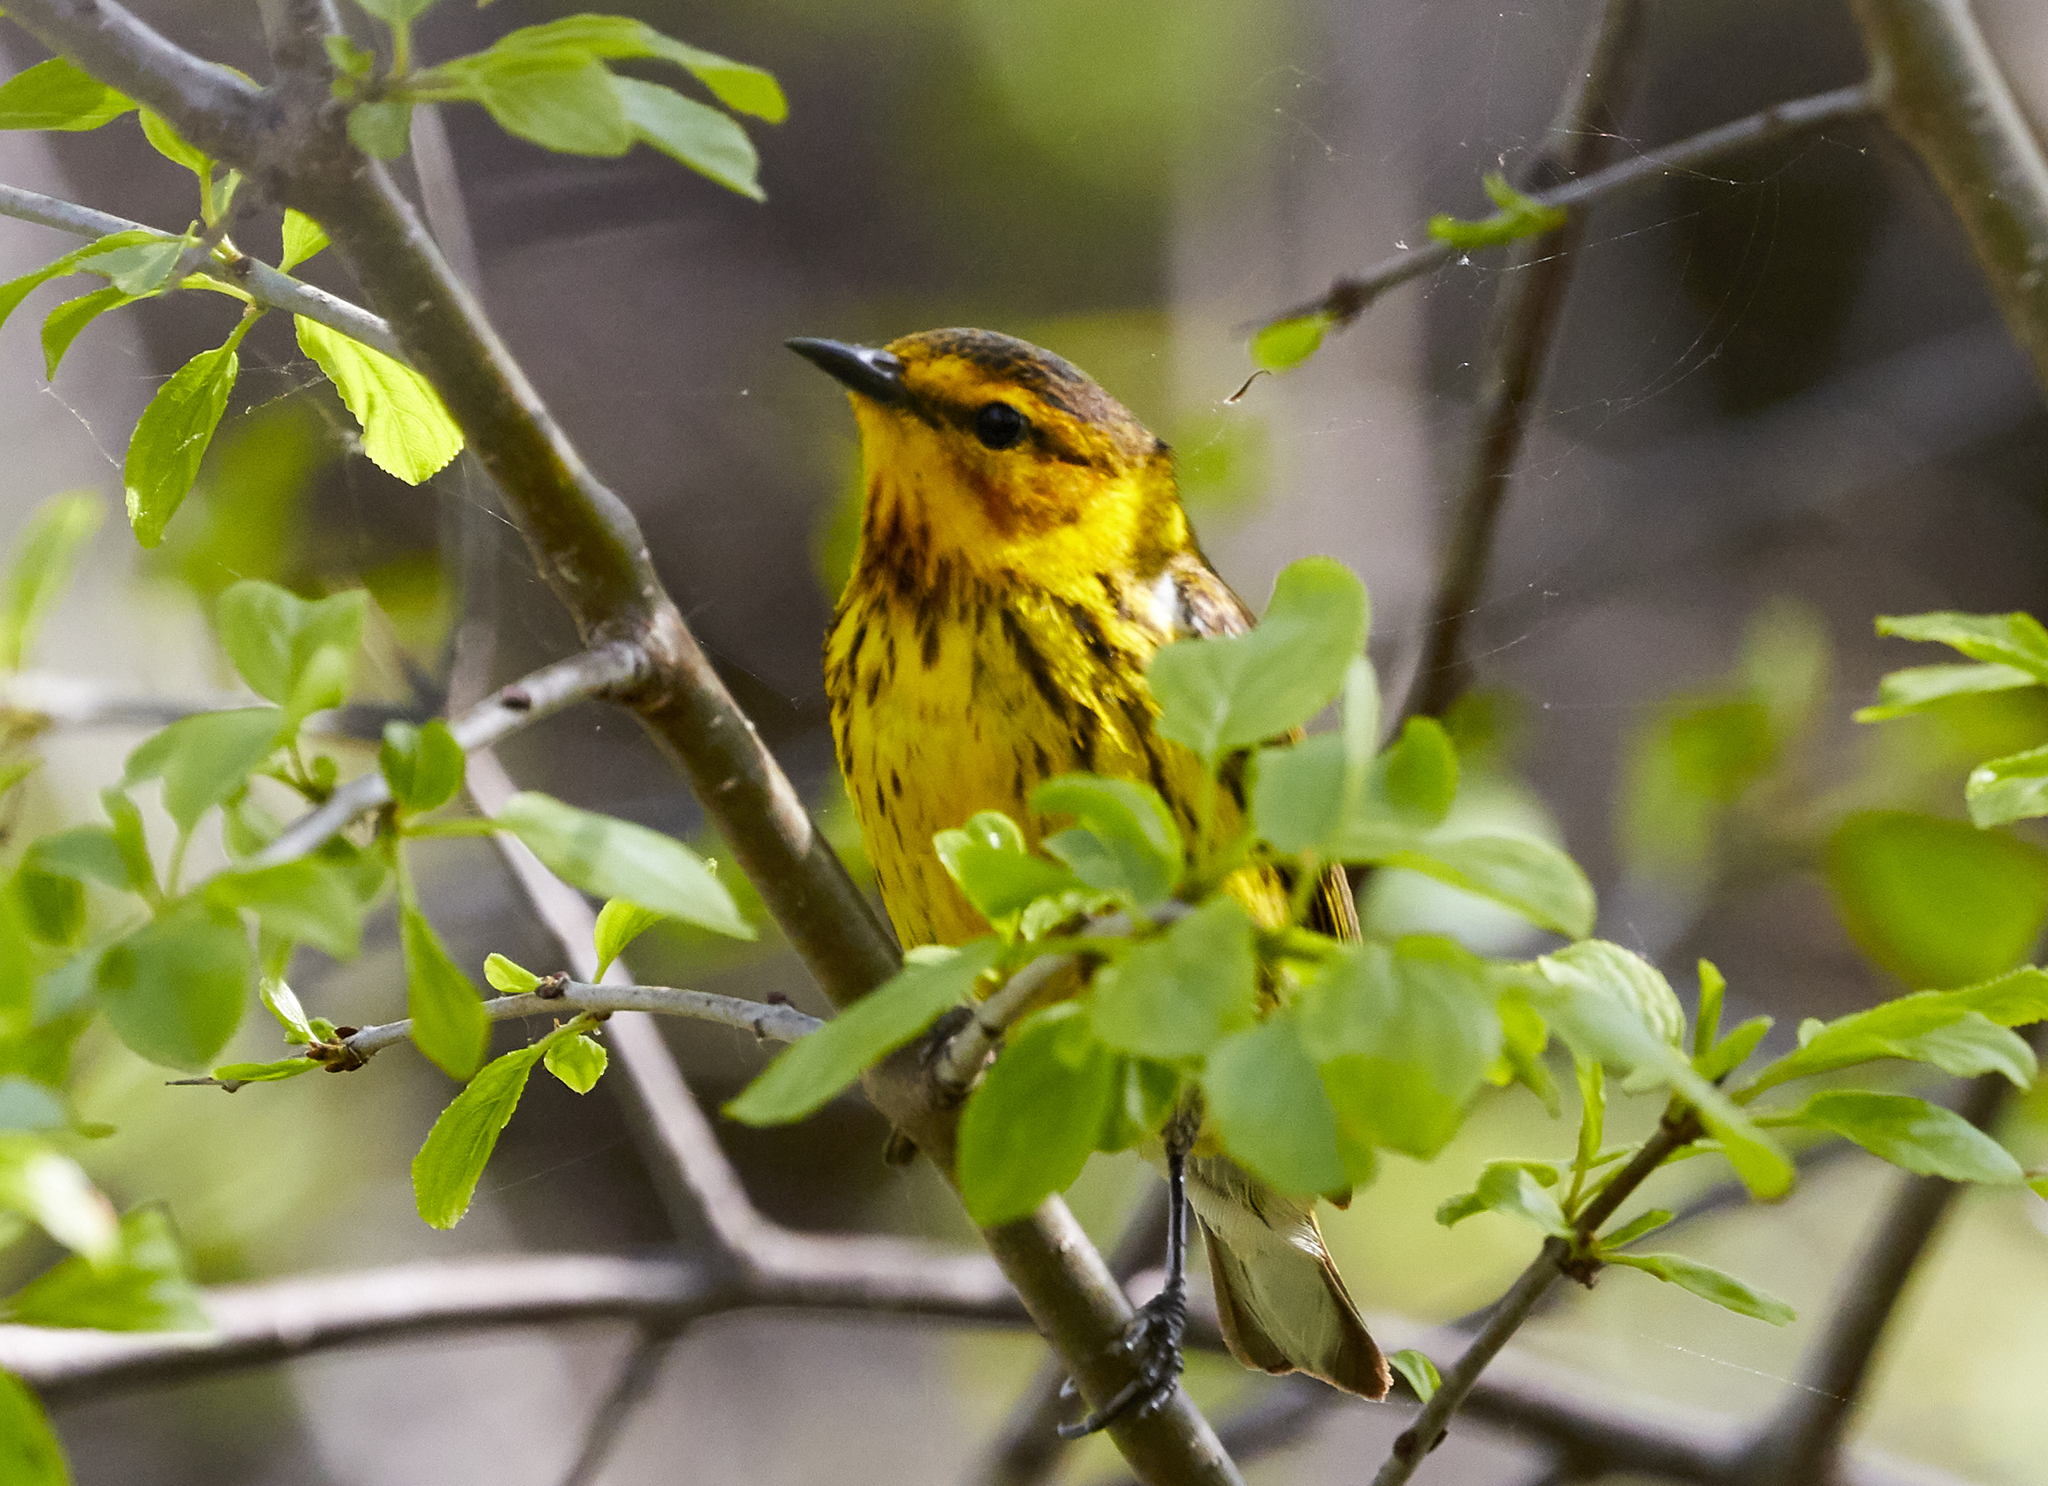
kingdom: Animalia
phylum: Chordata
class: Aves
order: Passeriformes
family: Parulidae
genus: Setophaga
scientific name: Setophaga tigrina
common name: Cape may warbler
